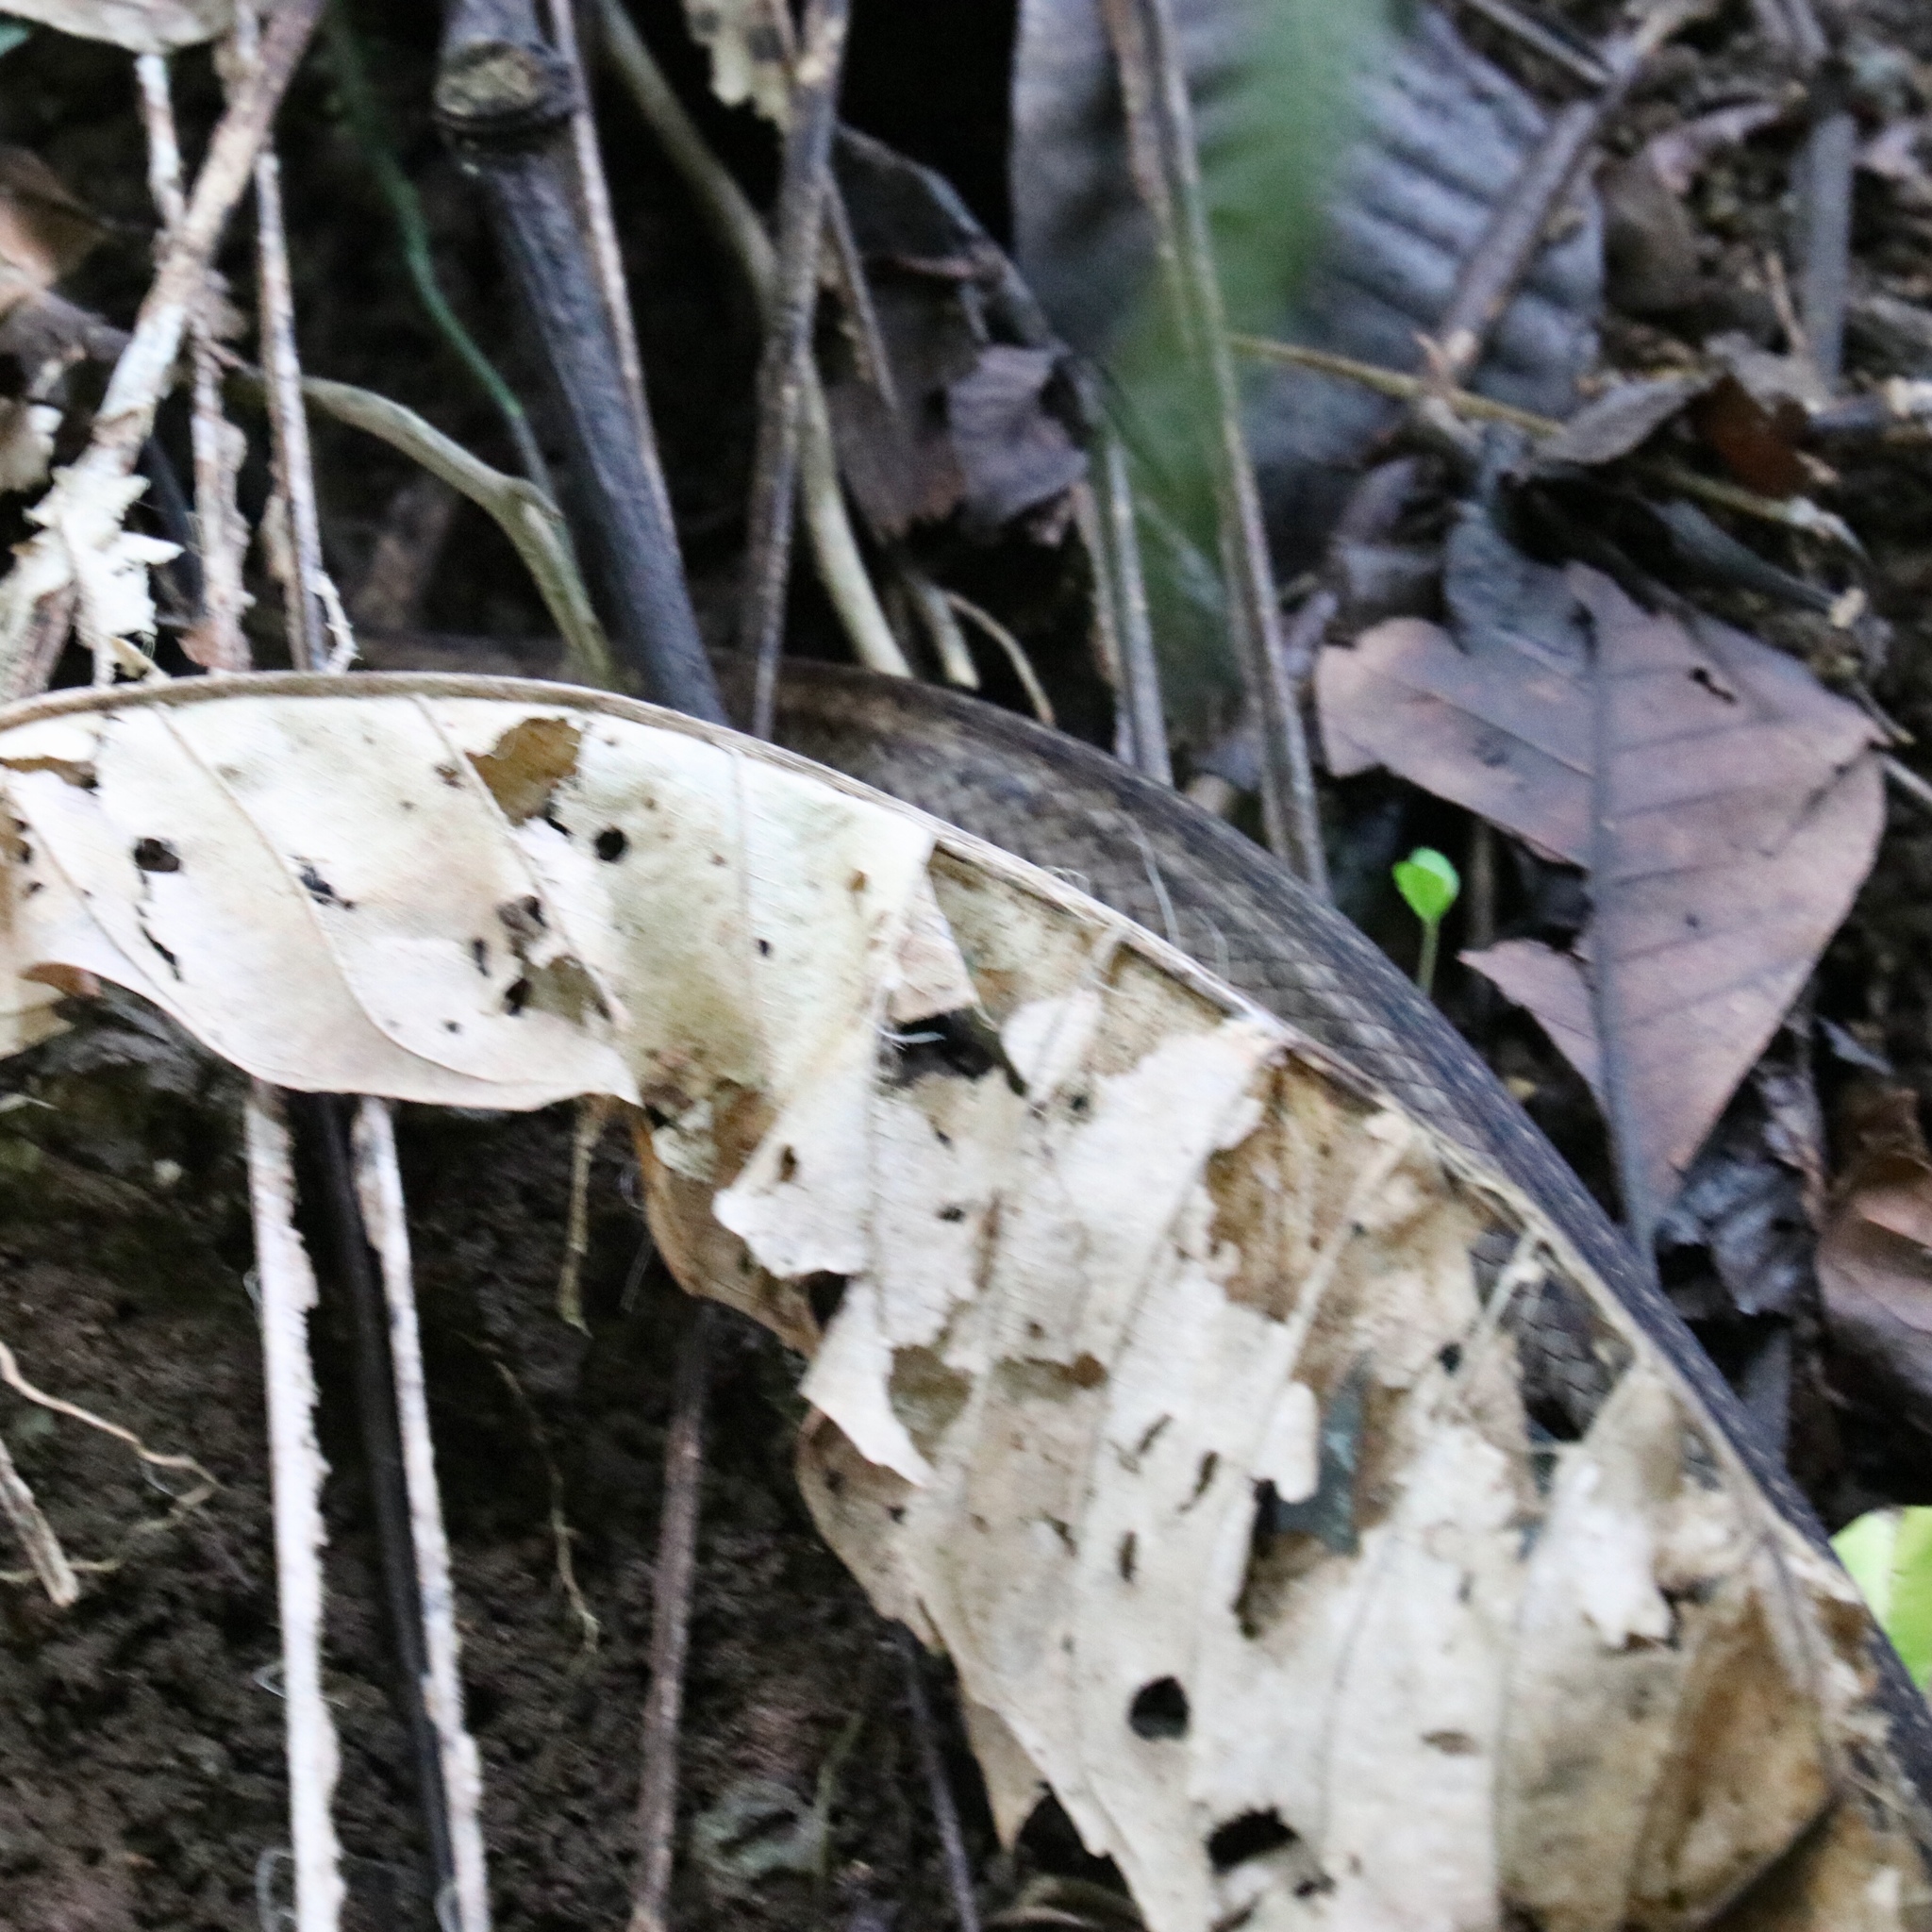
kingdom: Animalia
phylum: Chordata
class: Squamata
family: Colubridae
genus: Chironius
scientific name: Chironius flavopictus
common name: Sipo
